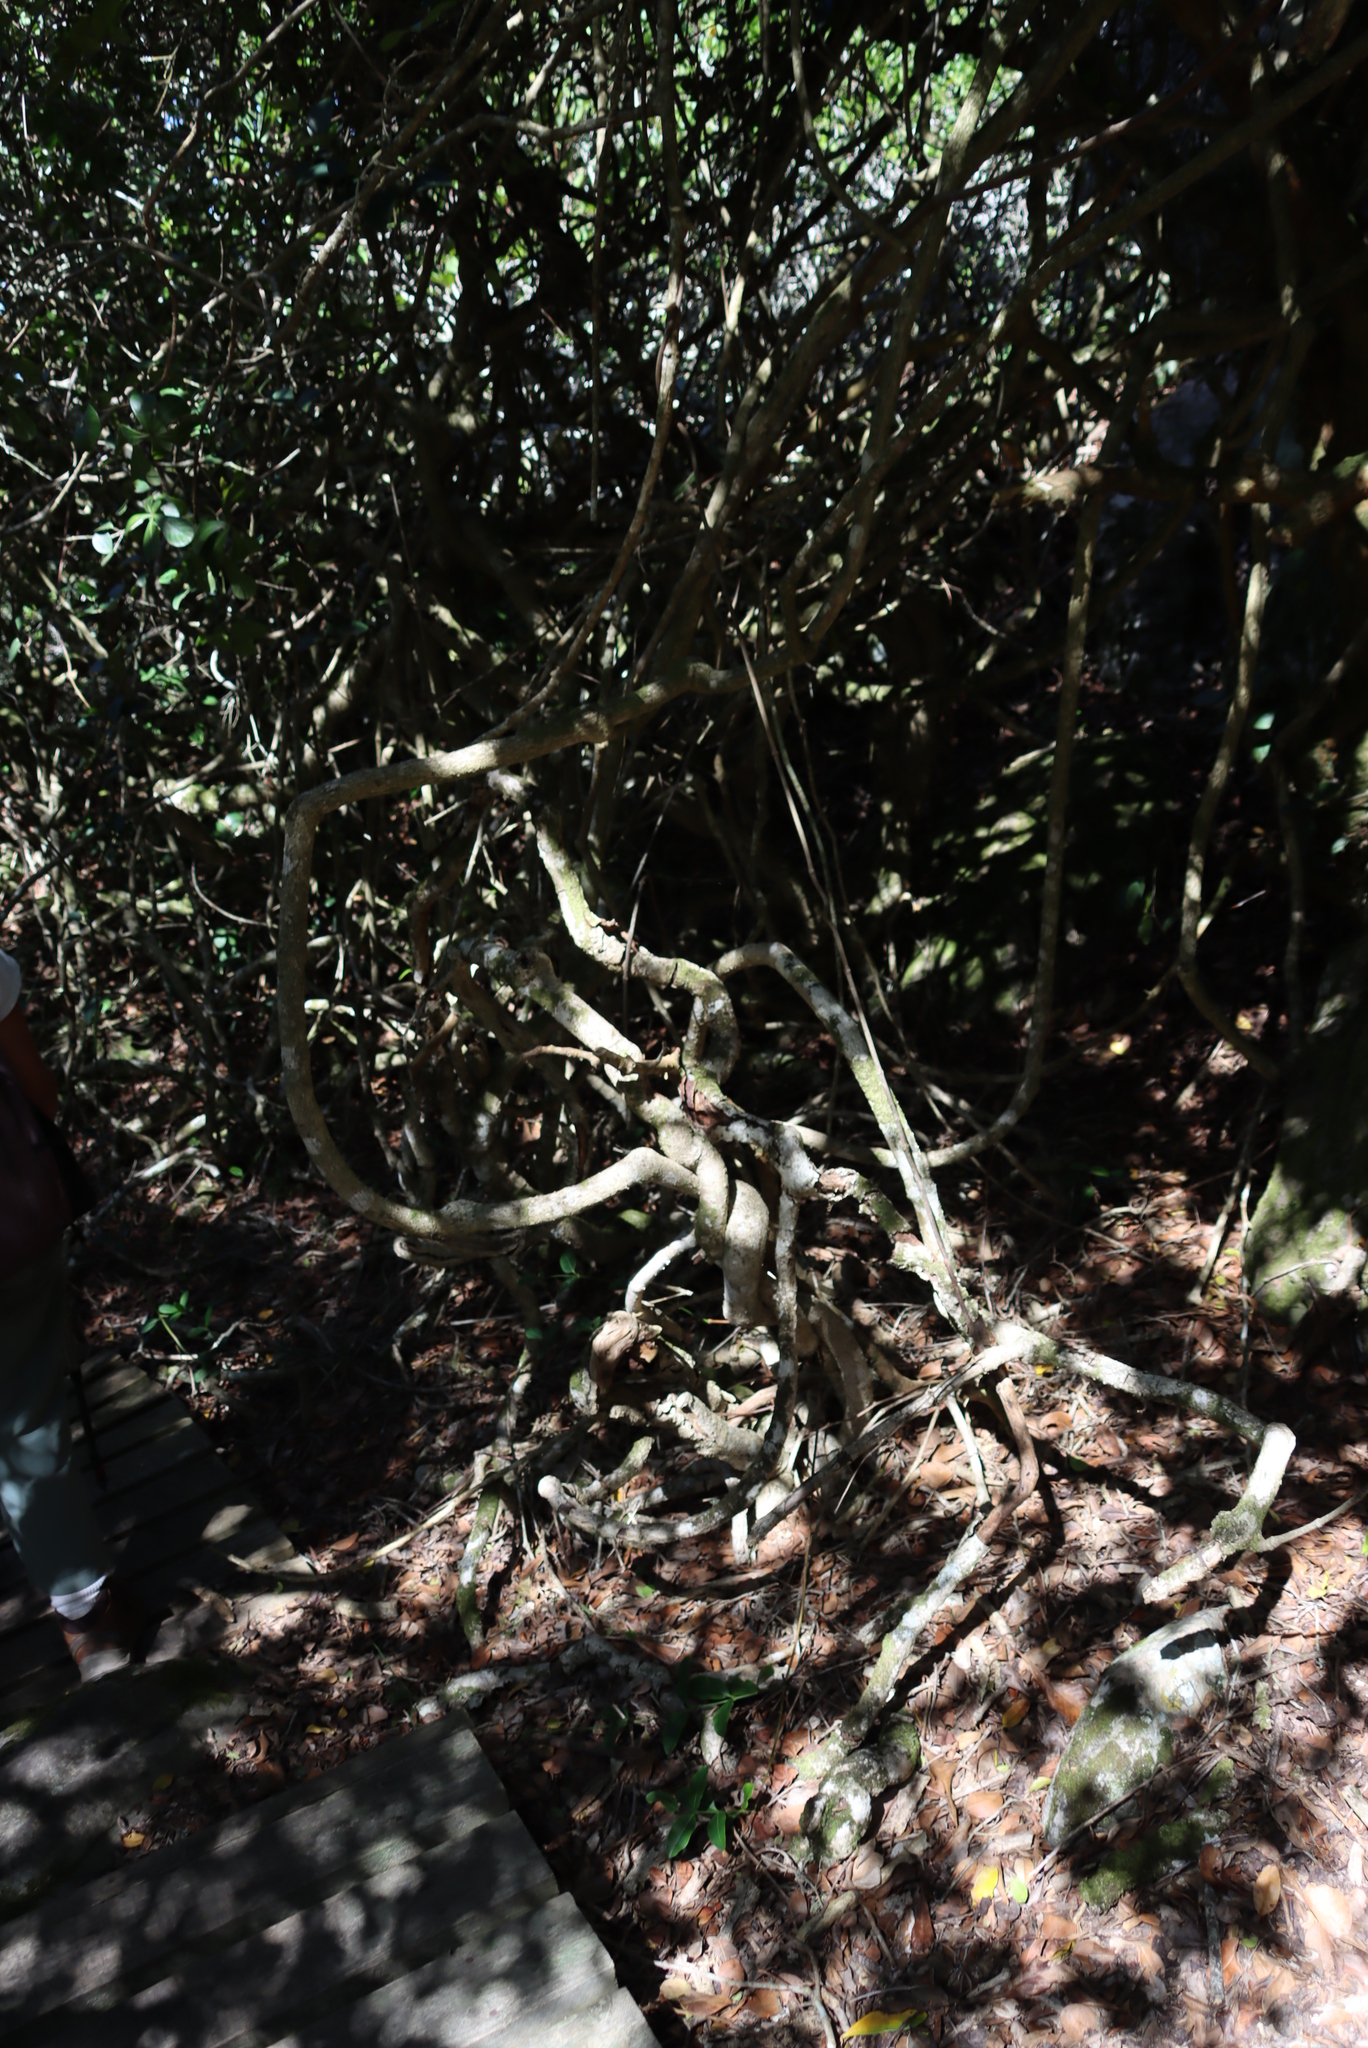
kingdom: Plantae
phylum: Tracheophyta
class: Magnoliopsida
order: Gentianales
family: Apocynaceae
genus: Secamone
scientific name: Secamone alpini
